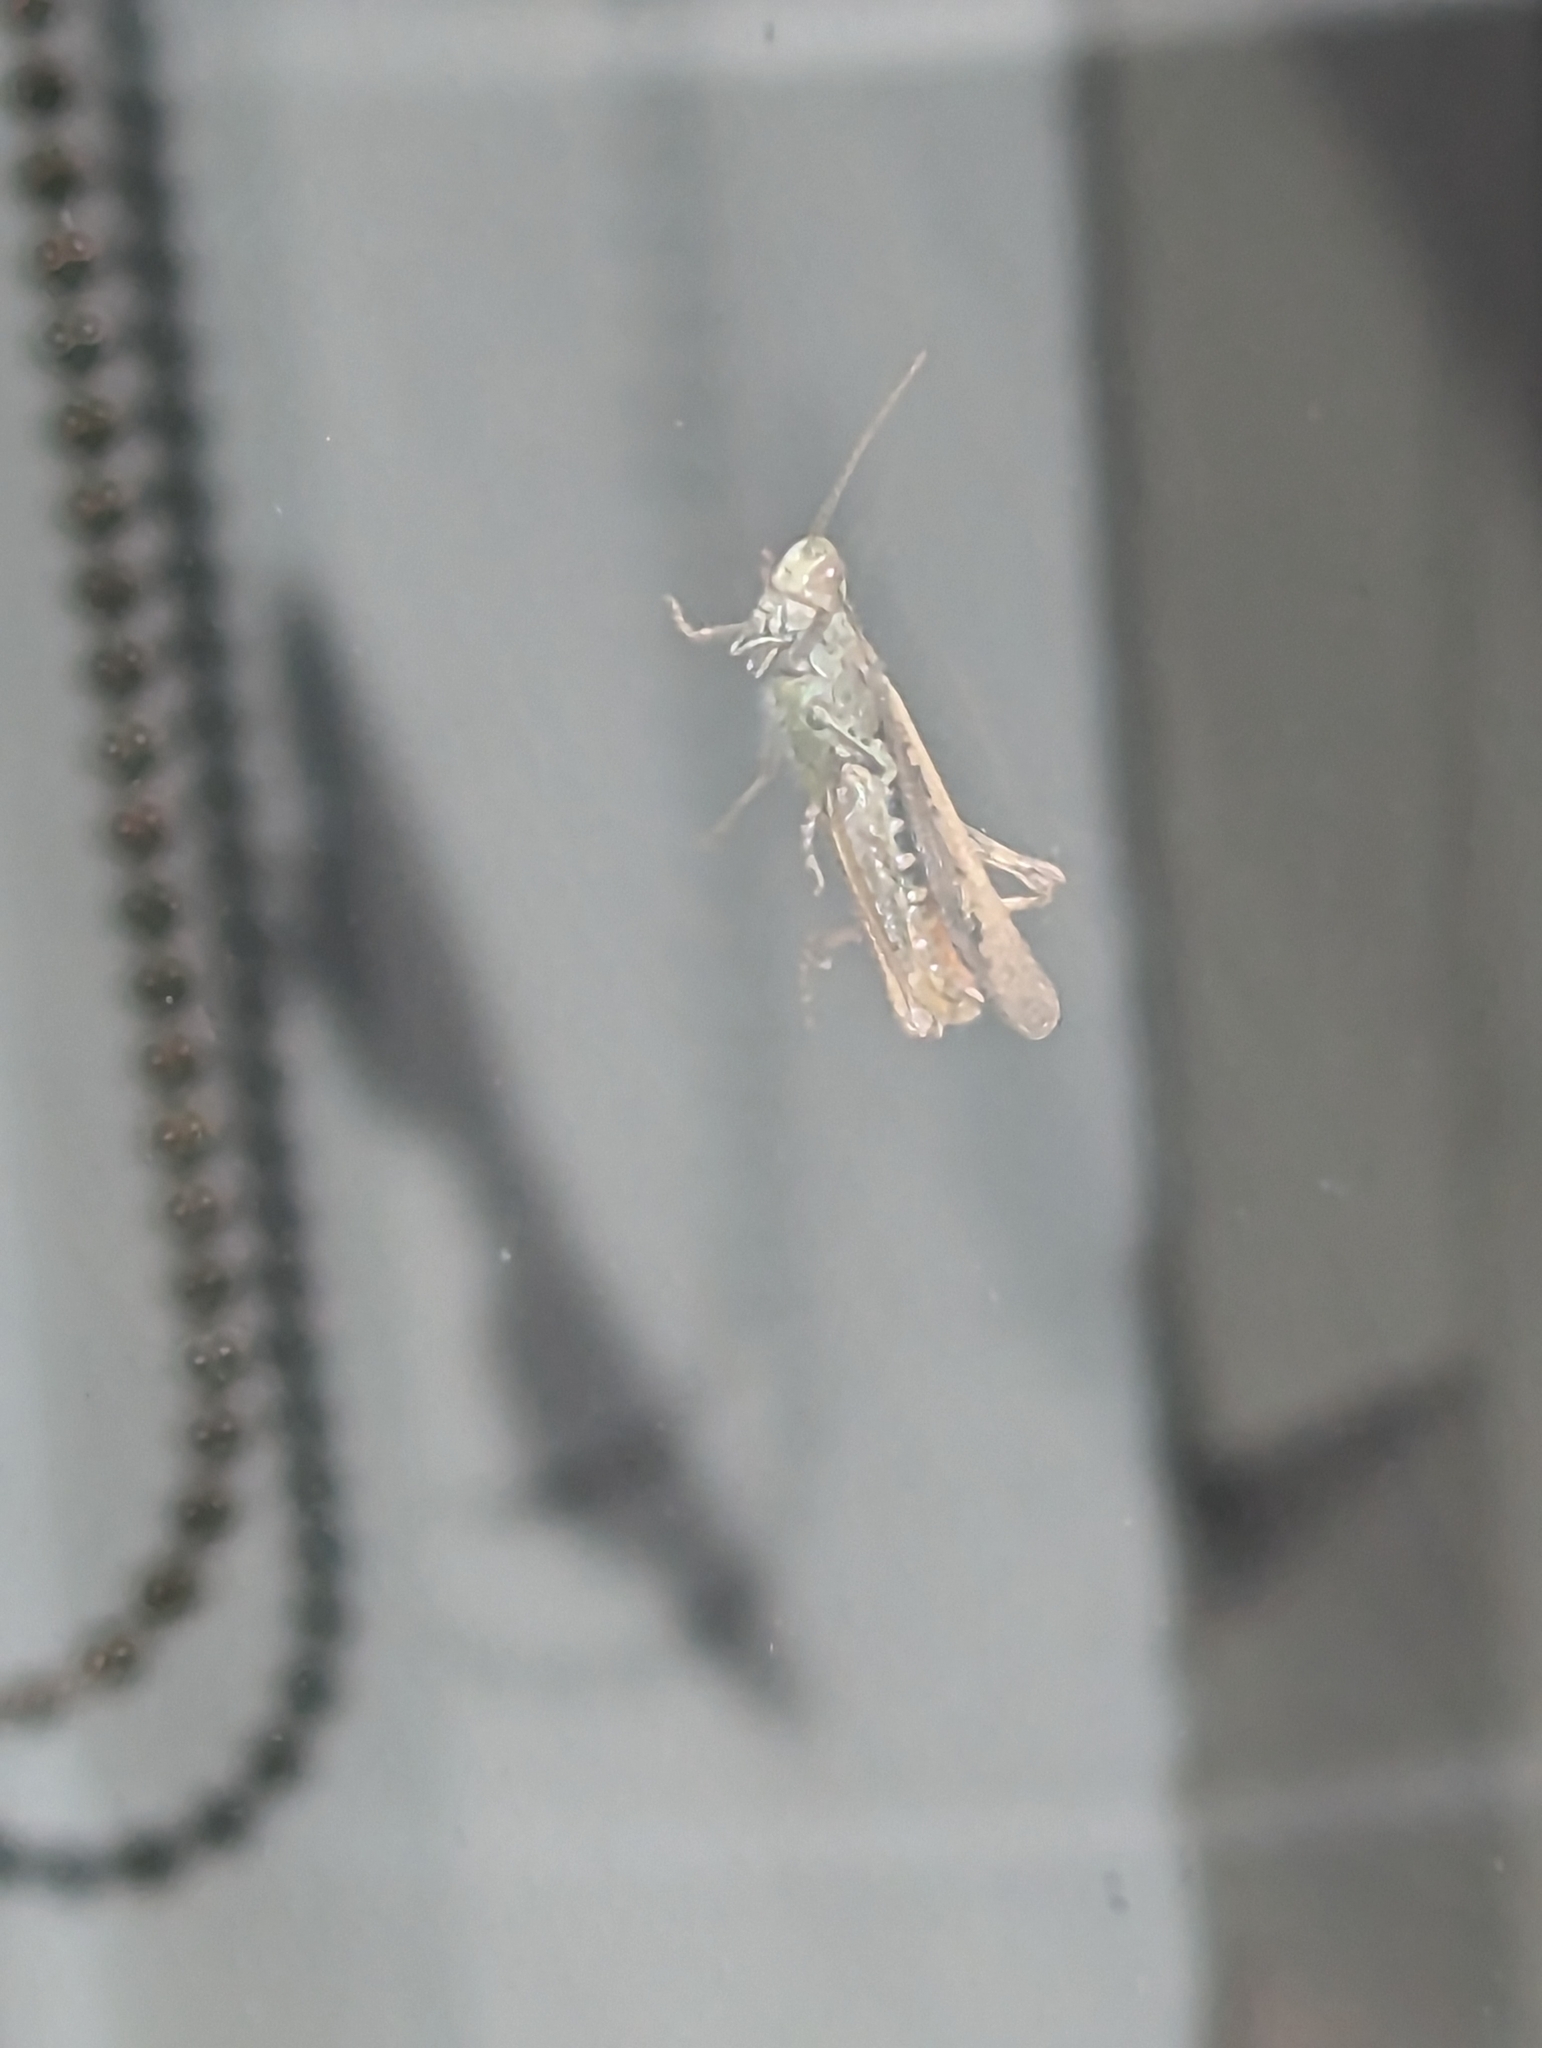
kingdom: Animalia
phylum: Arthropoda
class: Insecta
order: Orthoptera
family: Acrididae
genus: Chorthippus
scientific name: Chorthippus brunneus
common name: Field grasshopper
